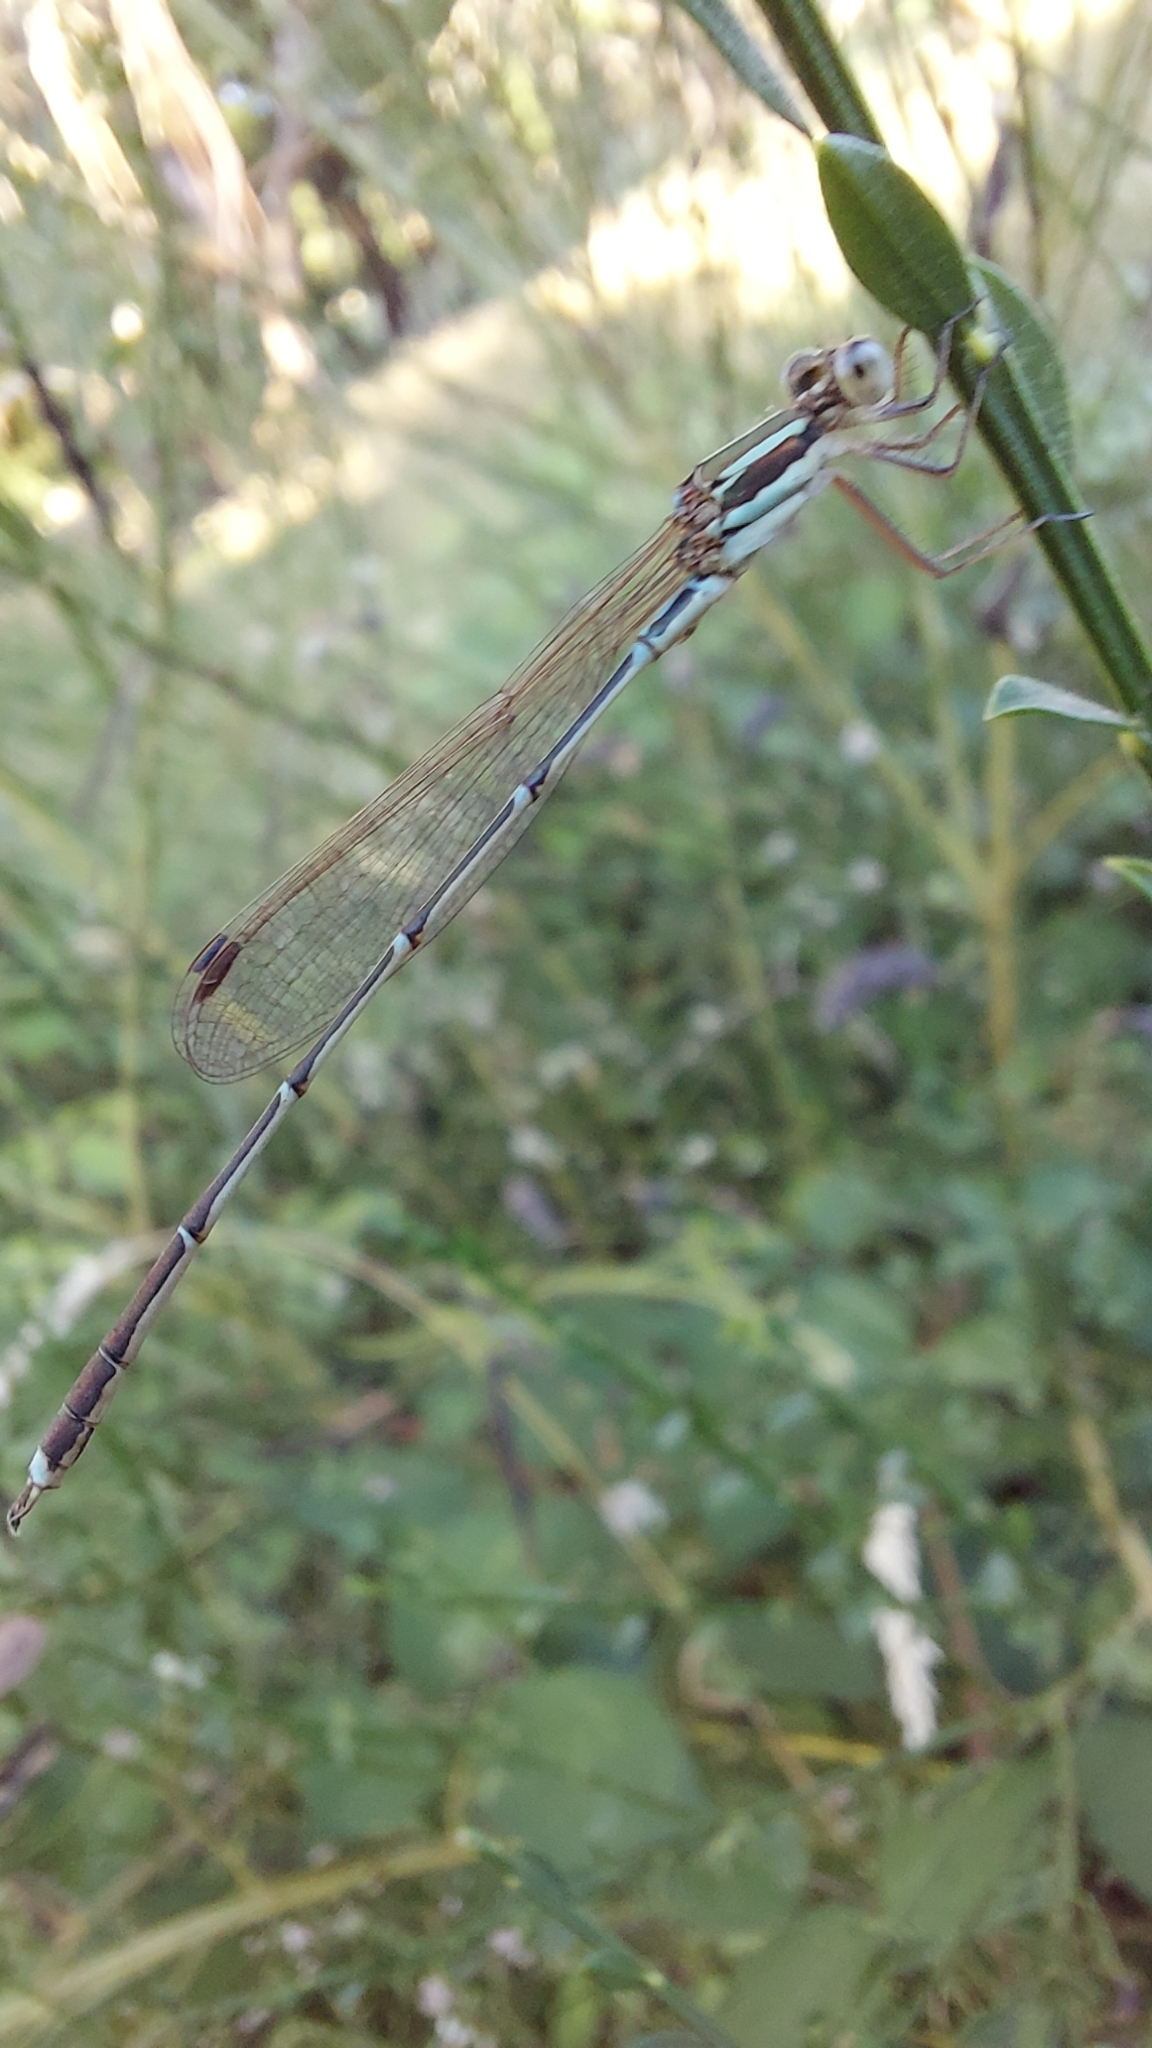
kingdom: Animalia
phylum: Arthropoda
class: Insecta
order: Odonata
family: Lestidae
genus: Austrolestes
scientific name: Austrolestes analis
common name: Slender ringtail
